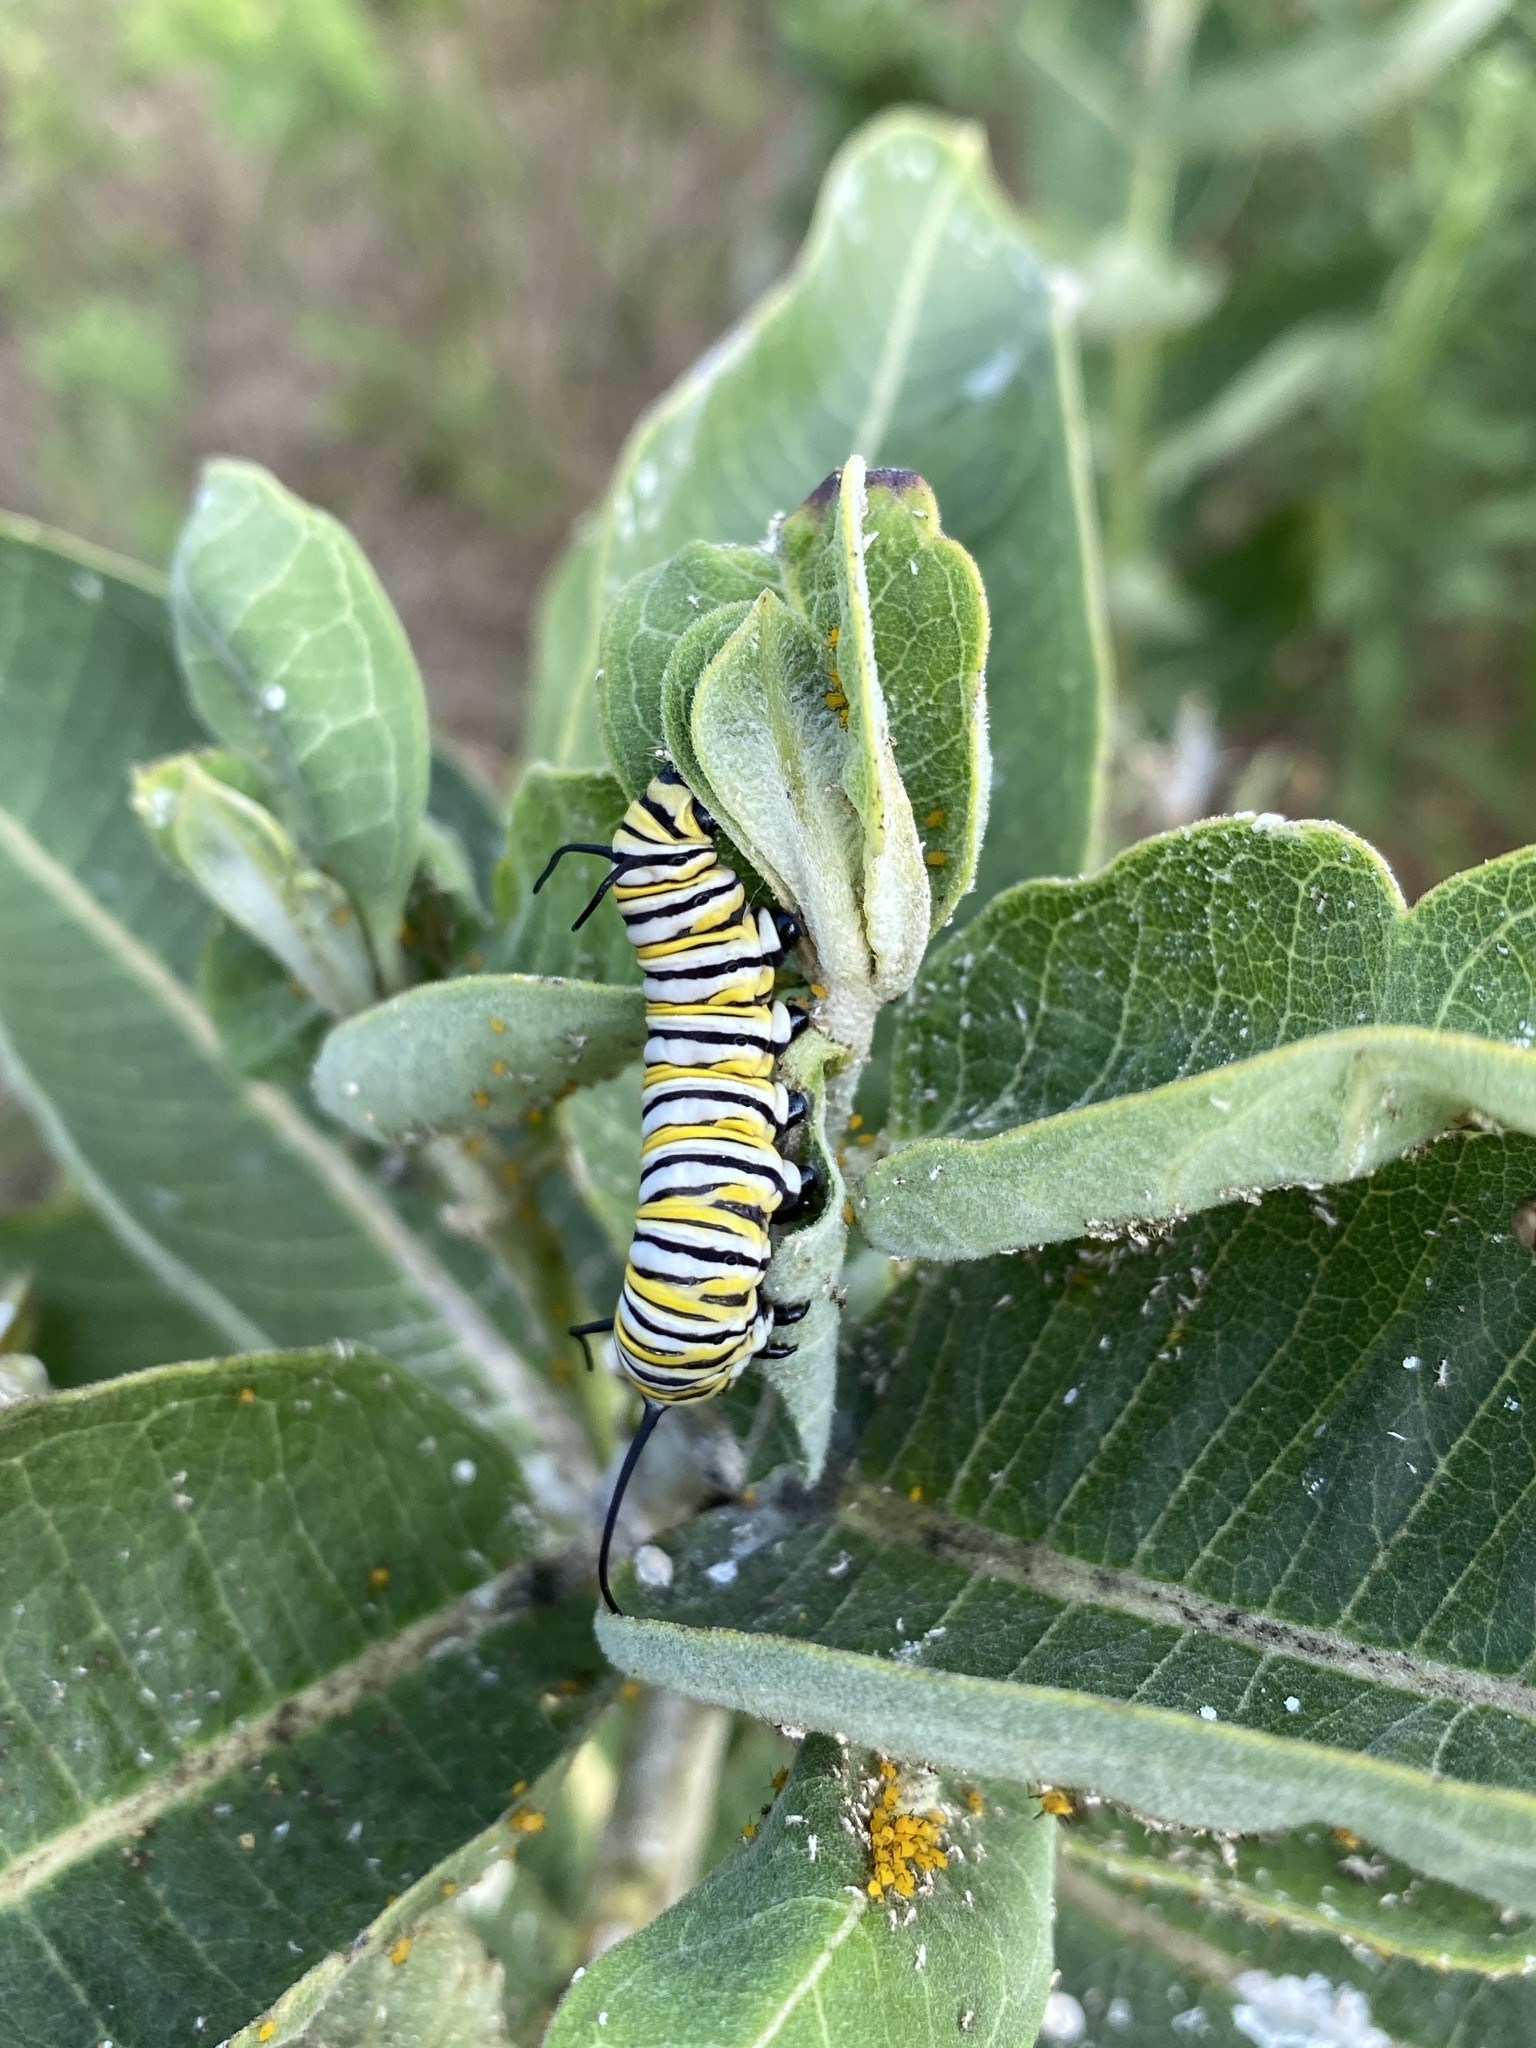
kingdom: Animalia
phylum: Arthropoda
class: Insecta
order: Lepidoptera
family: Nymphalidae
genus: Danaus
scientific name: Danaus plexippus
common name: Monarch
